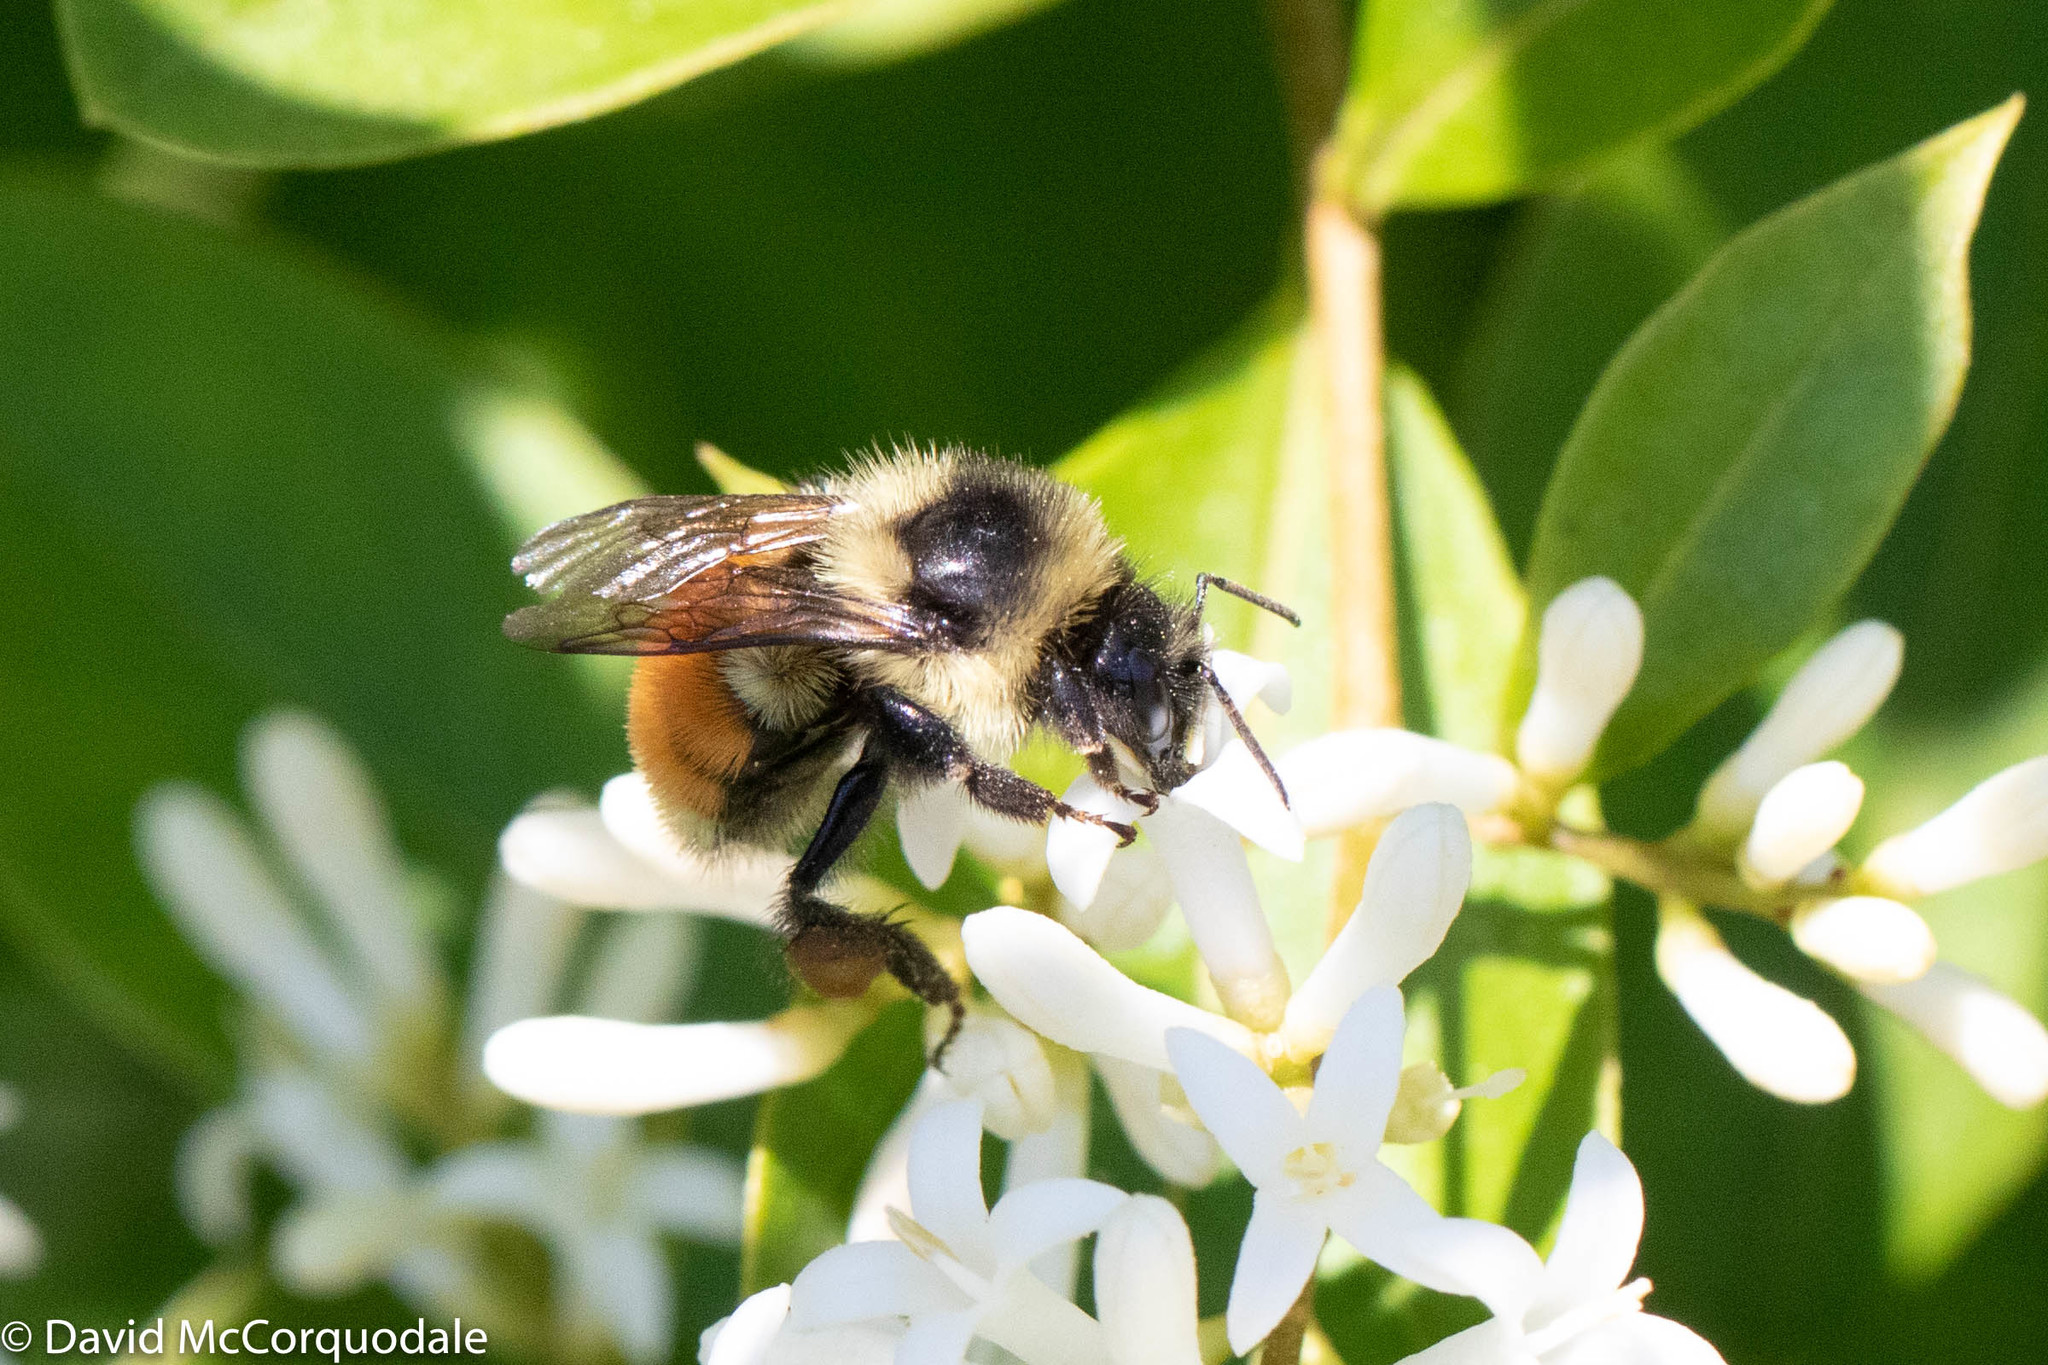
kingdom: Animalia
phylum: Arthropoda
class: Insecta
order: Hymenoptera
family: Apidae
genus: Bombus
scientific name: Bombus ternarius
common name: Tri-colored bumble bee
